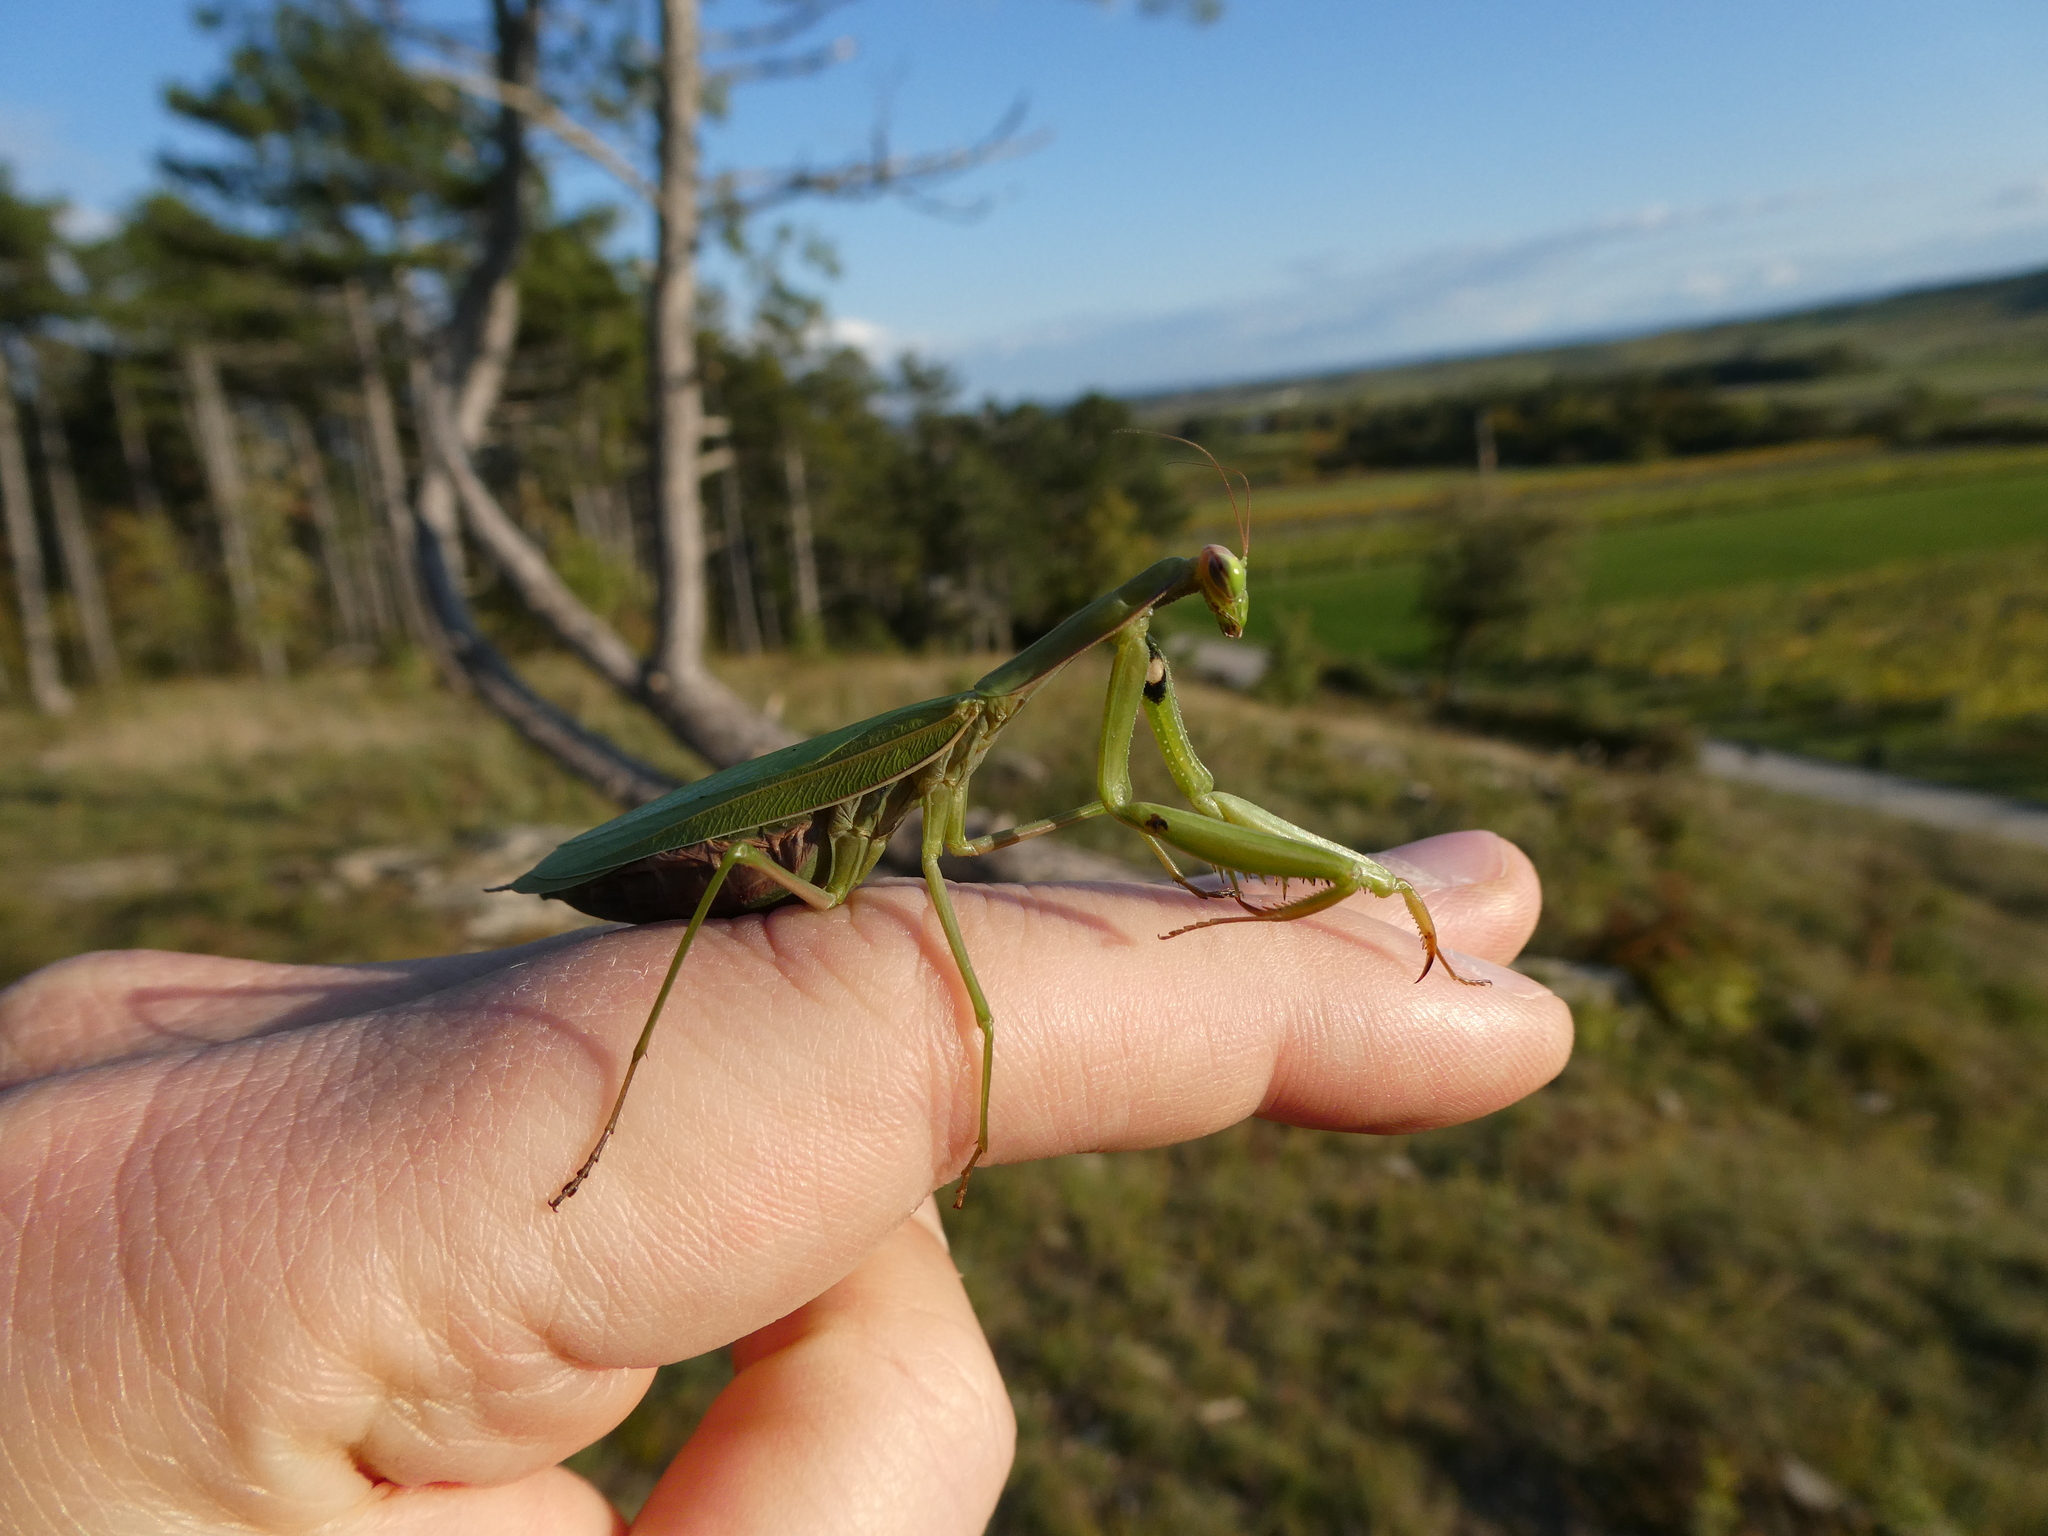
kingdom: Animalia
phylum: Arthropoda
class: Insecta
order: Mantodea
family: Mantidae
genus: Mantis
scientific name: Mantis religiosa
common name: Praying mantis
